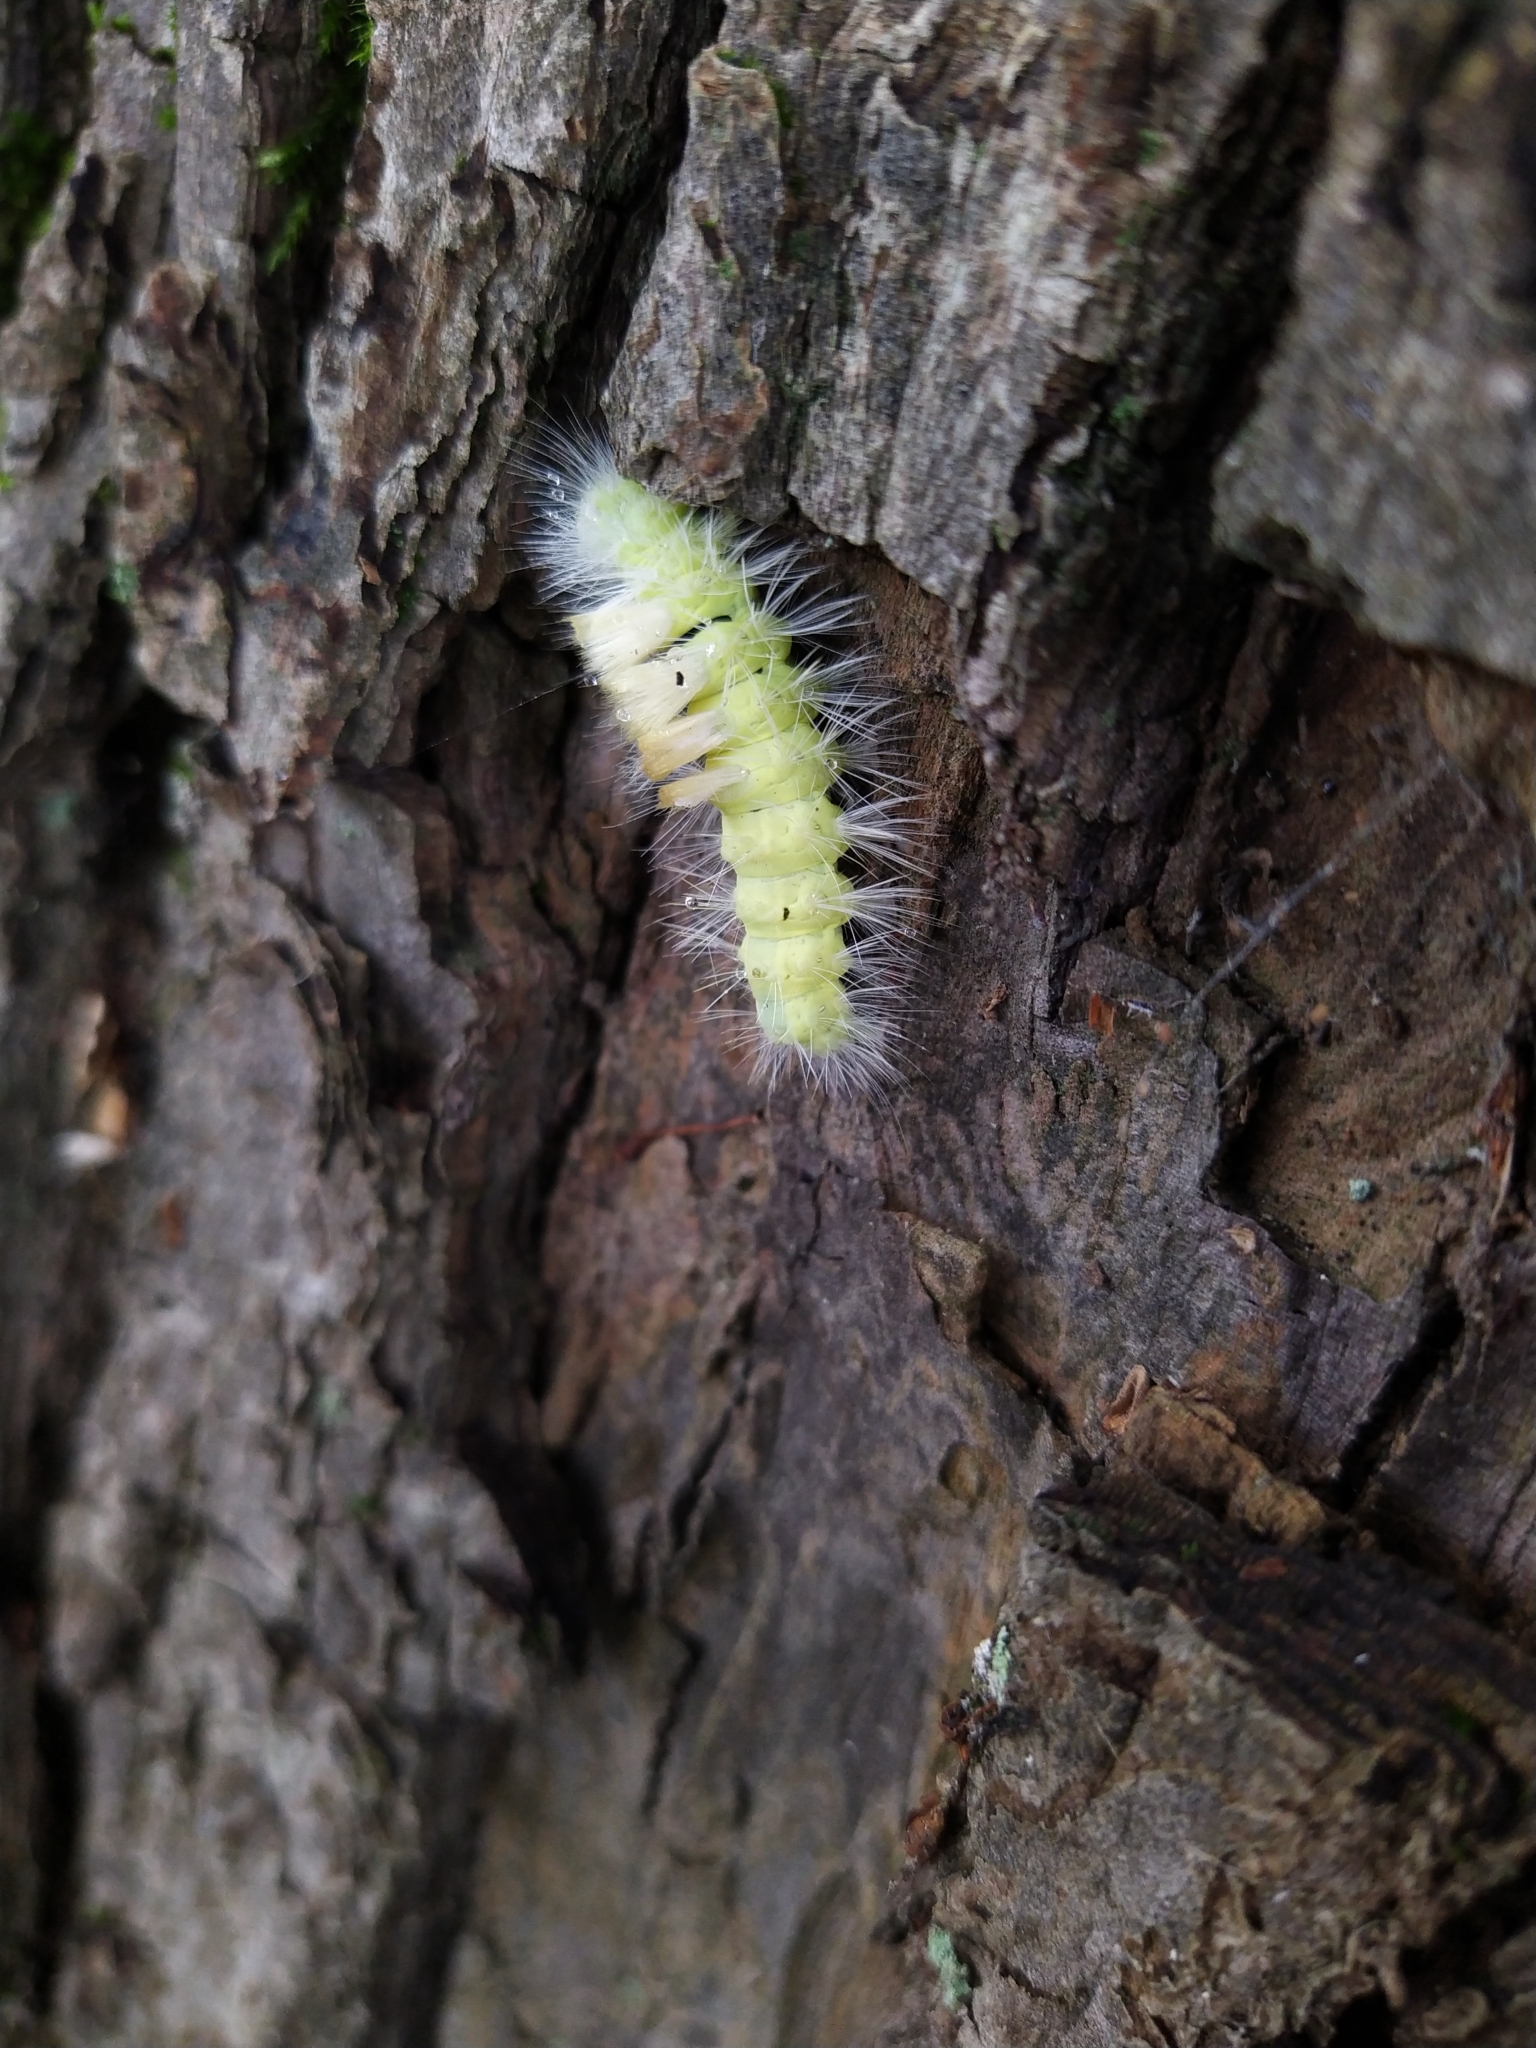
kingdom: Animalia
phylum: Arthropoda
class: Insecta
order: Lepidoptera
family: Erebidae
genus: Calliteara
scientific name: Calliteara pudibunda
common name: Pale tussock
